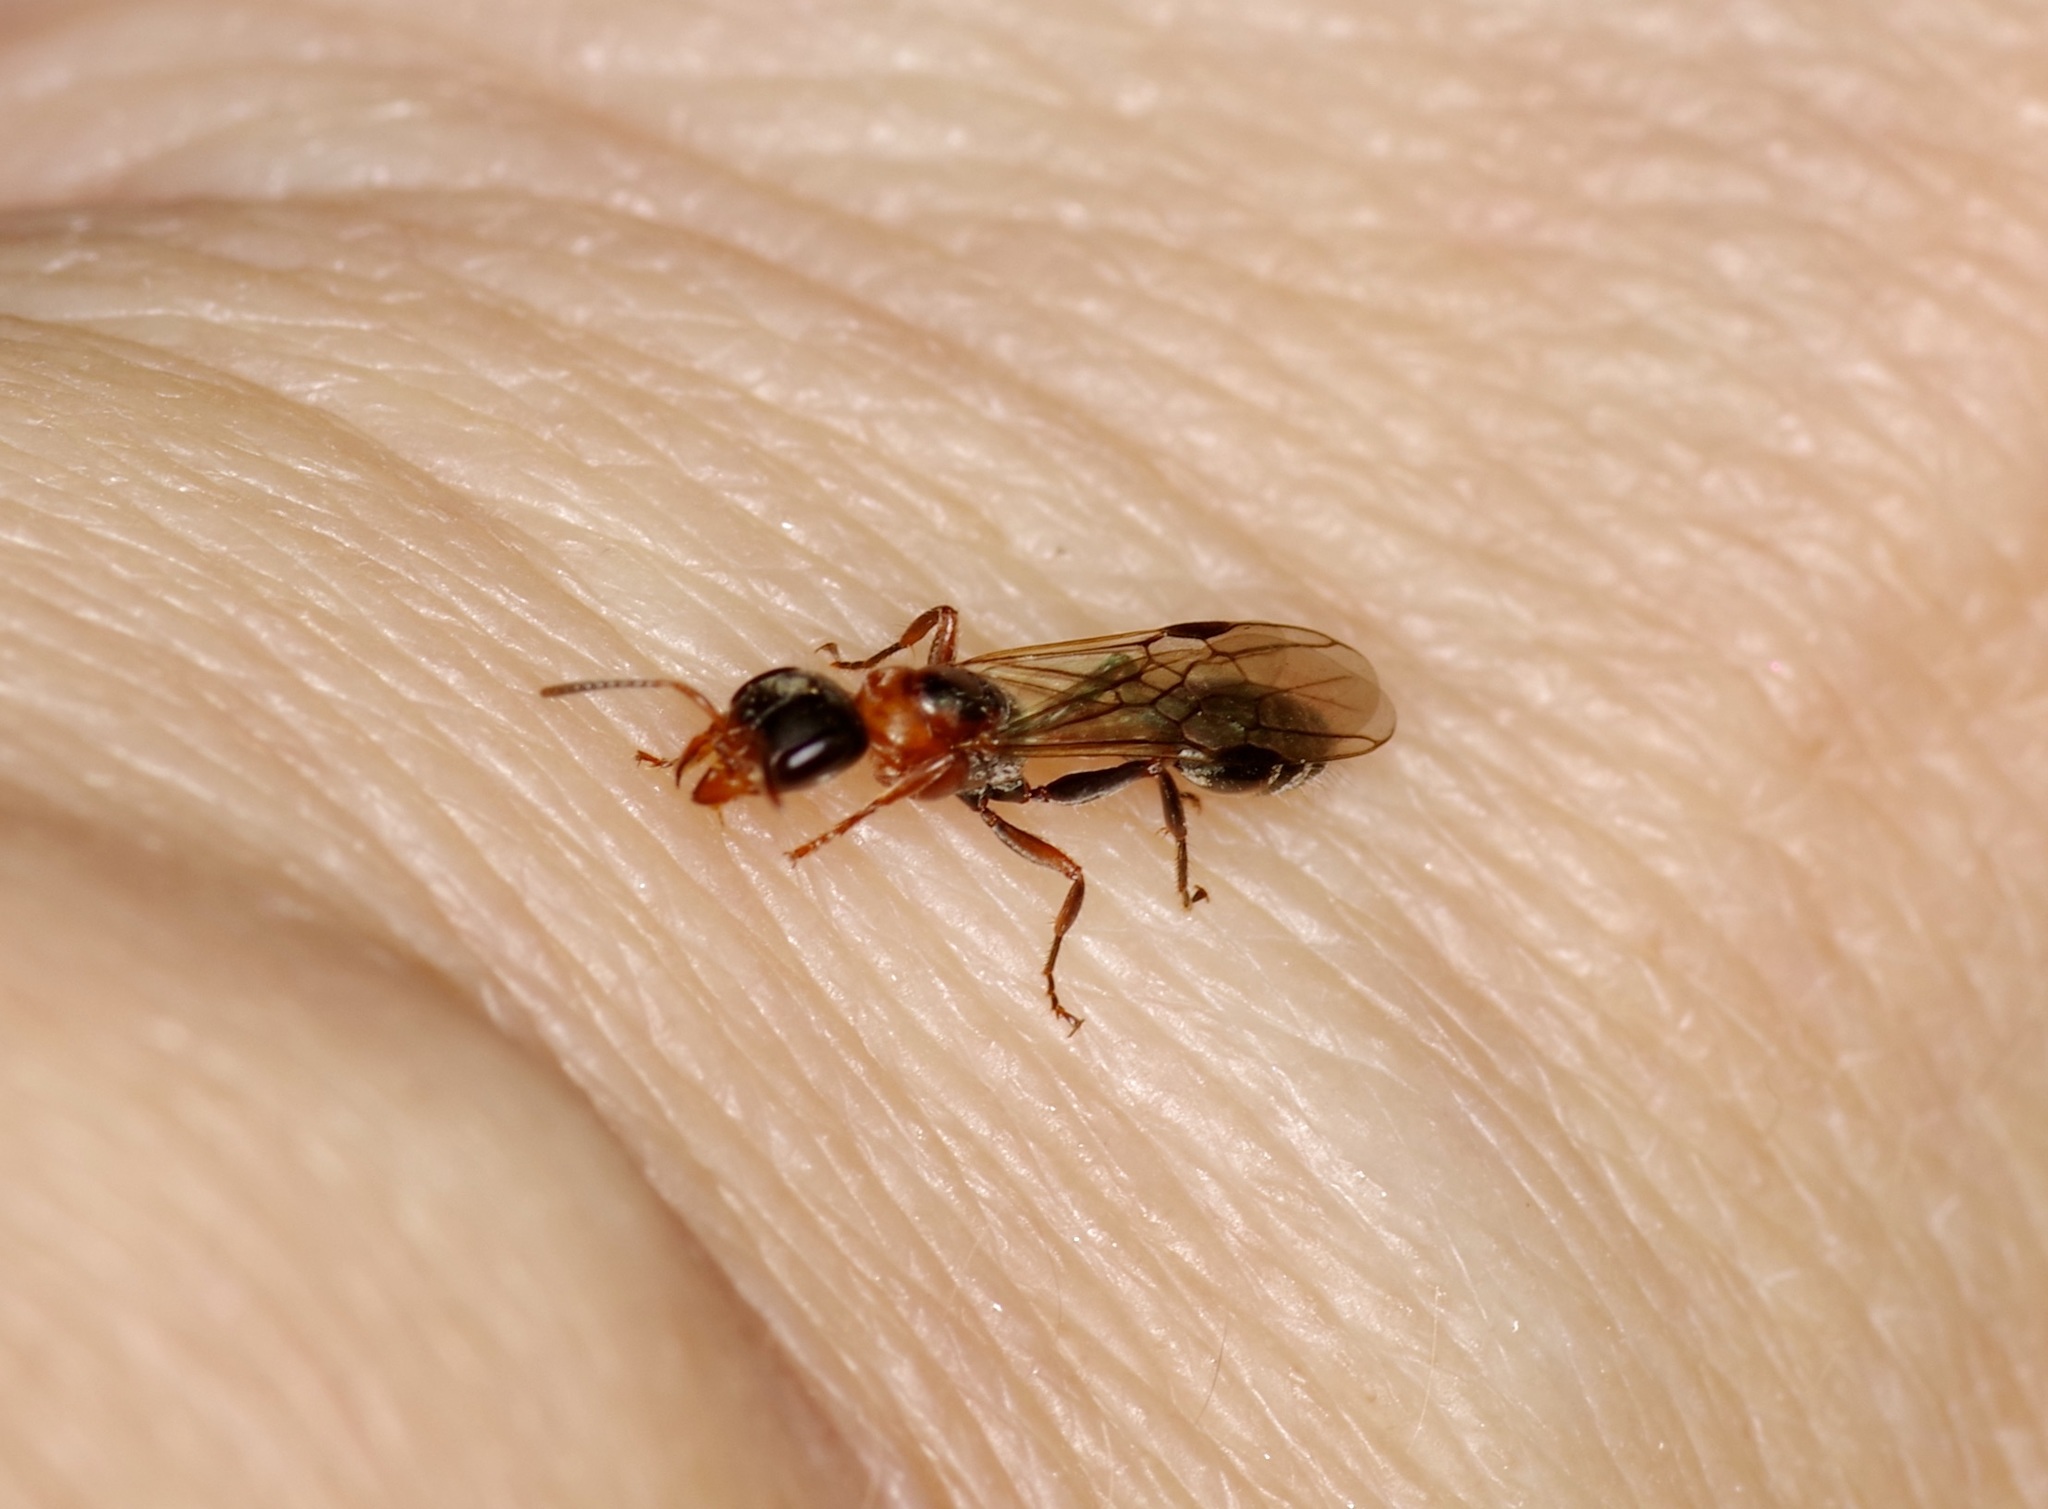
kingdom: Animalia
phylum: Arthropoda
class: Insecta
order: Hymenoptera
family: Formicidae
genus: Pseudomyrmex
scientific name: Pseudomyrmex gracilis
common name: Graceful twig ant
